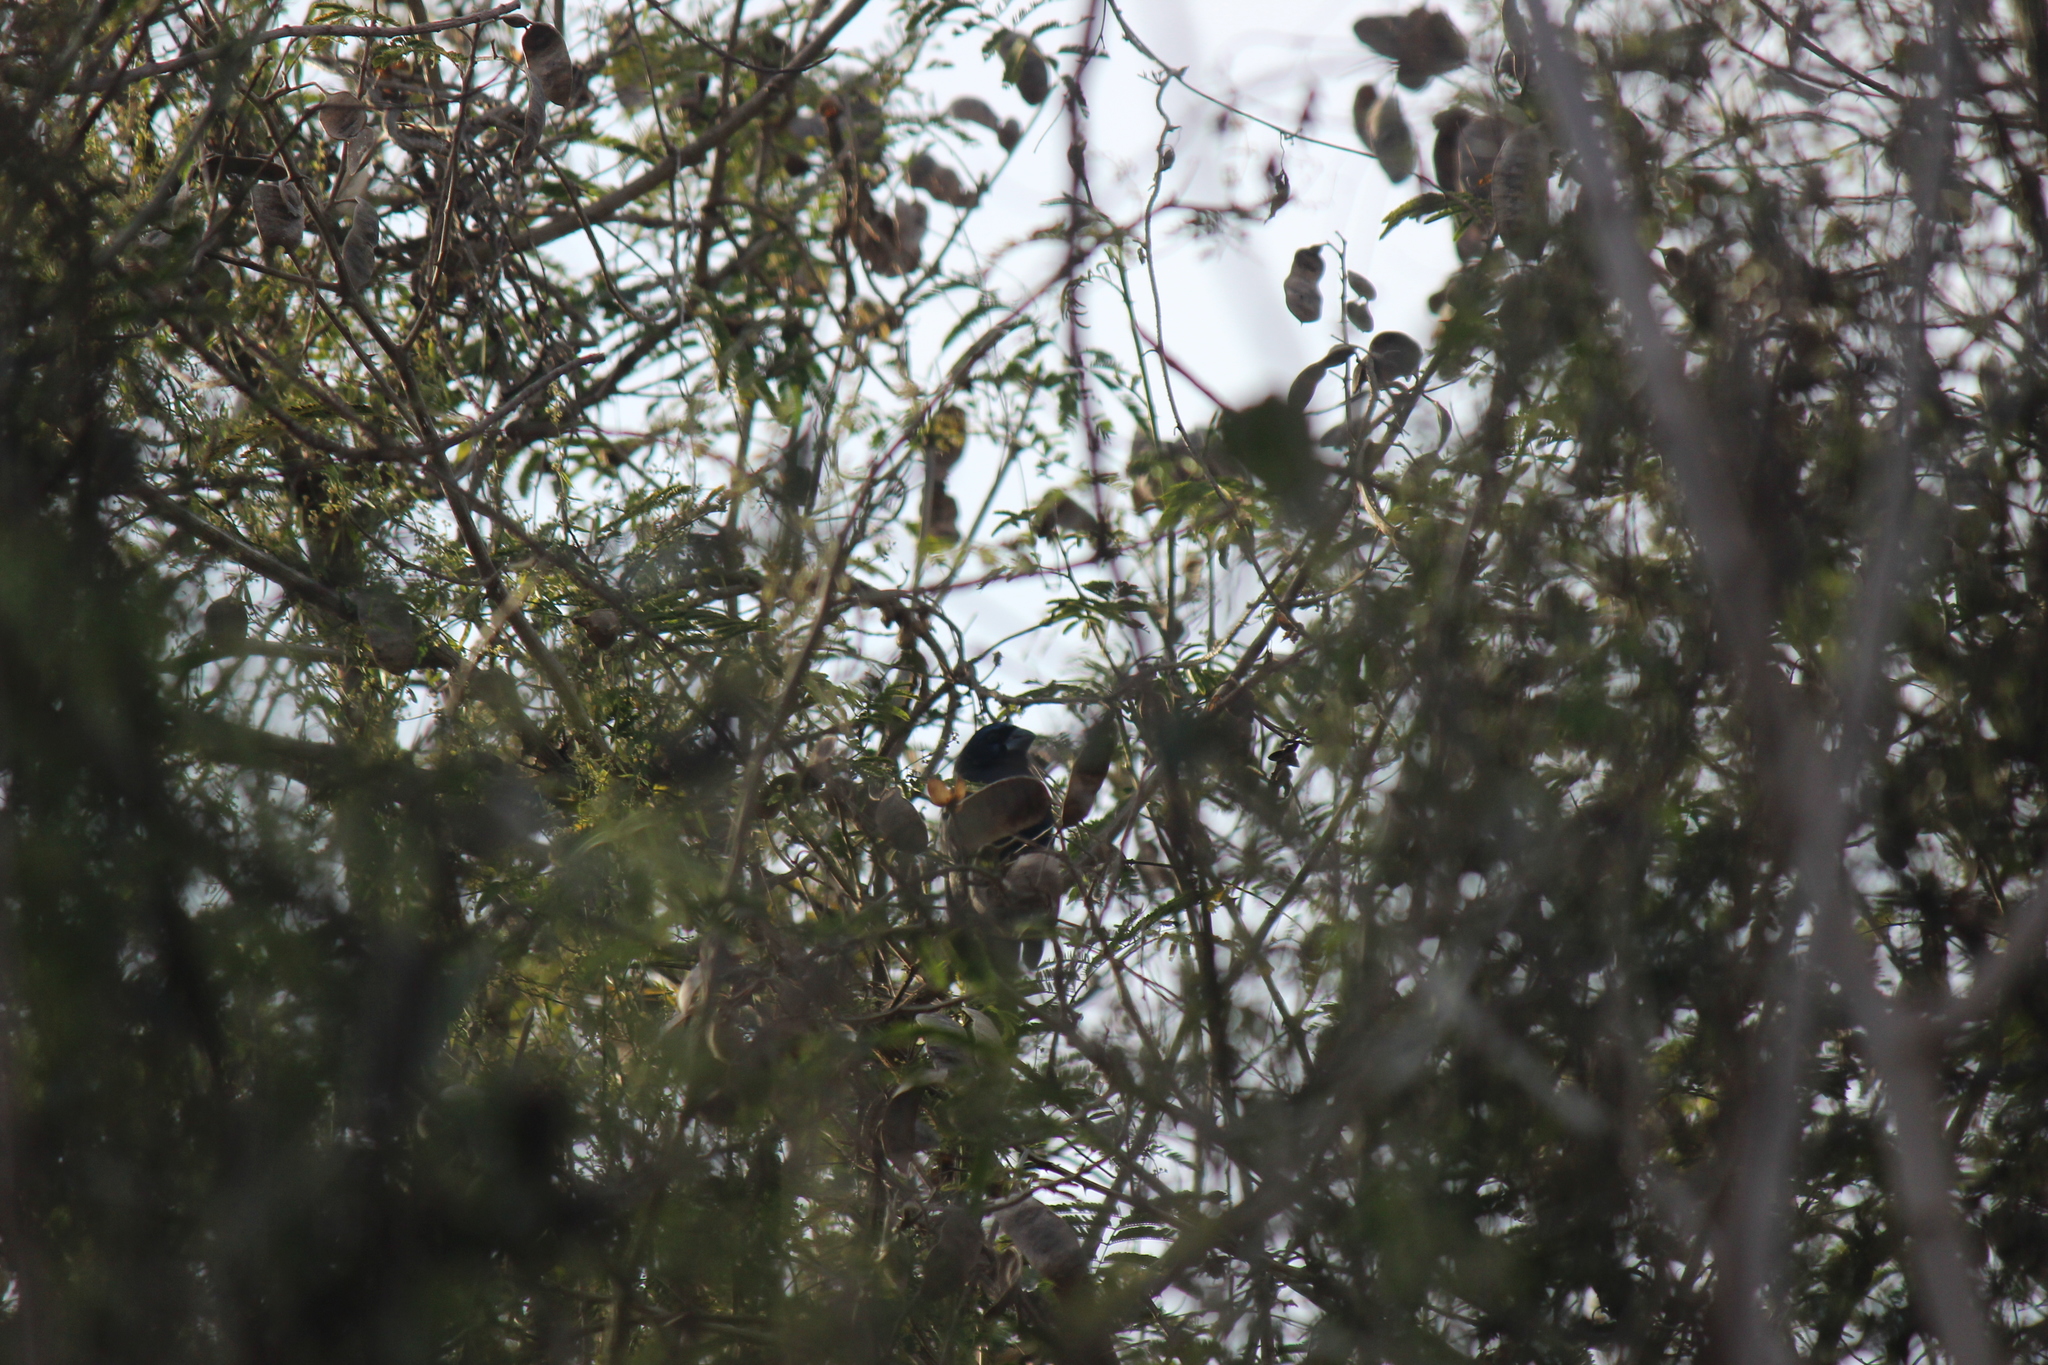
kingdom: Animalia
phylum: Chordata
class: Aves
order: Passeriformes
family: Cardinalidae
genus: Cyanoloxia
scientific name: Cyanoloxia brissonii
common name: Ultramarine grosbeak
